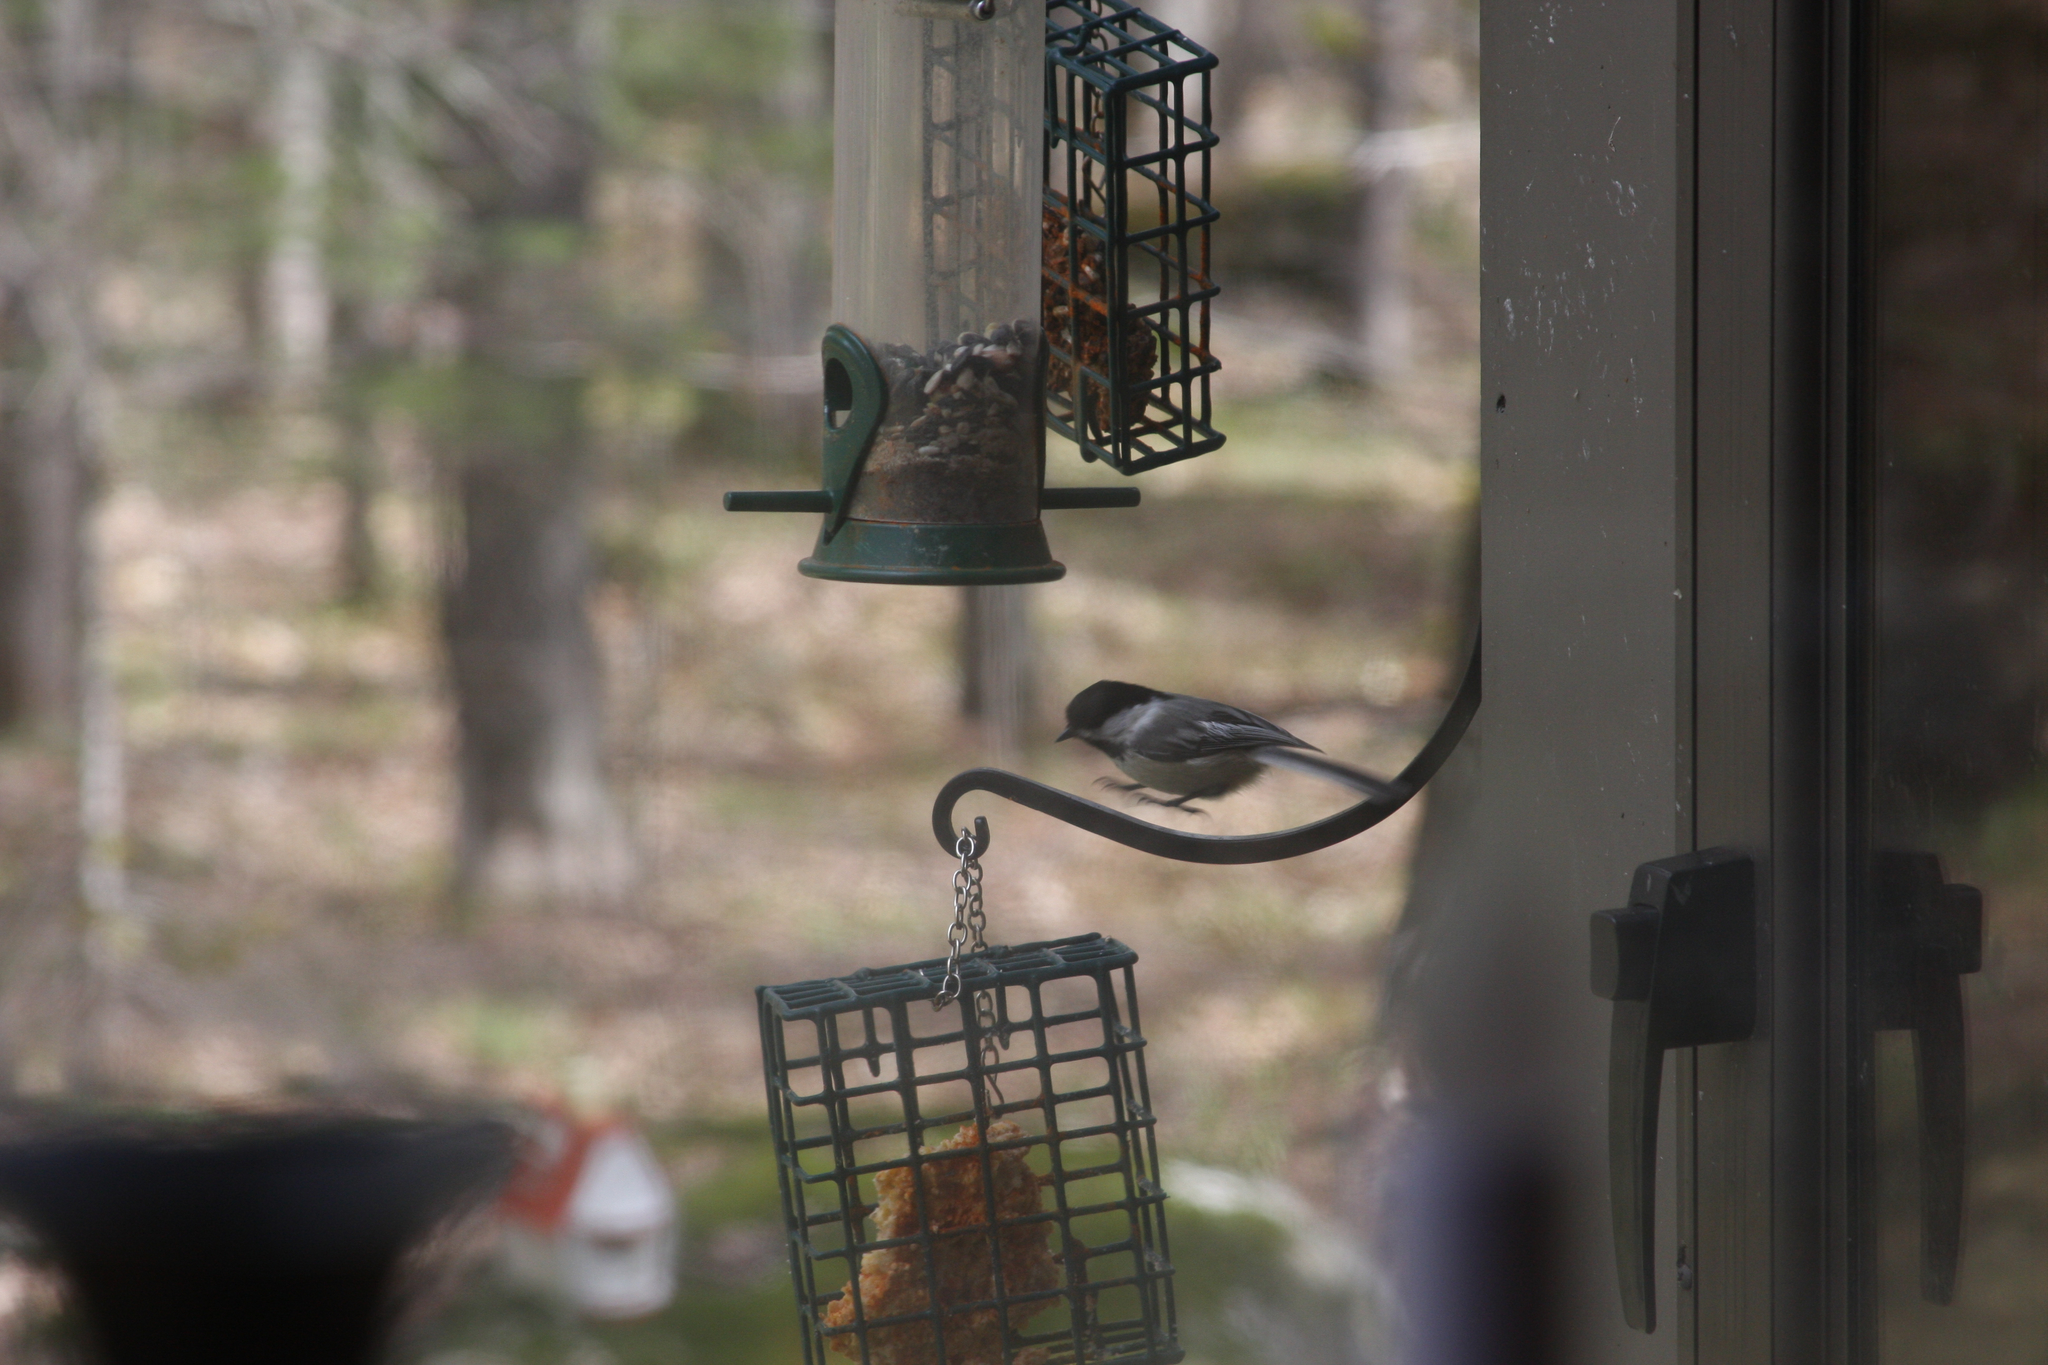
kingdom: Animalia
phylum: Chordata
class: Aves
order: Passeriformes
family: Paridae
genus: Poecile
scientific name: Poecile atricapillus
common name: Black-capped chickadee
